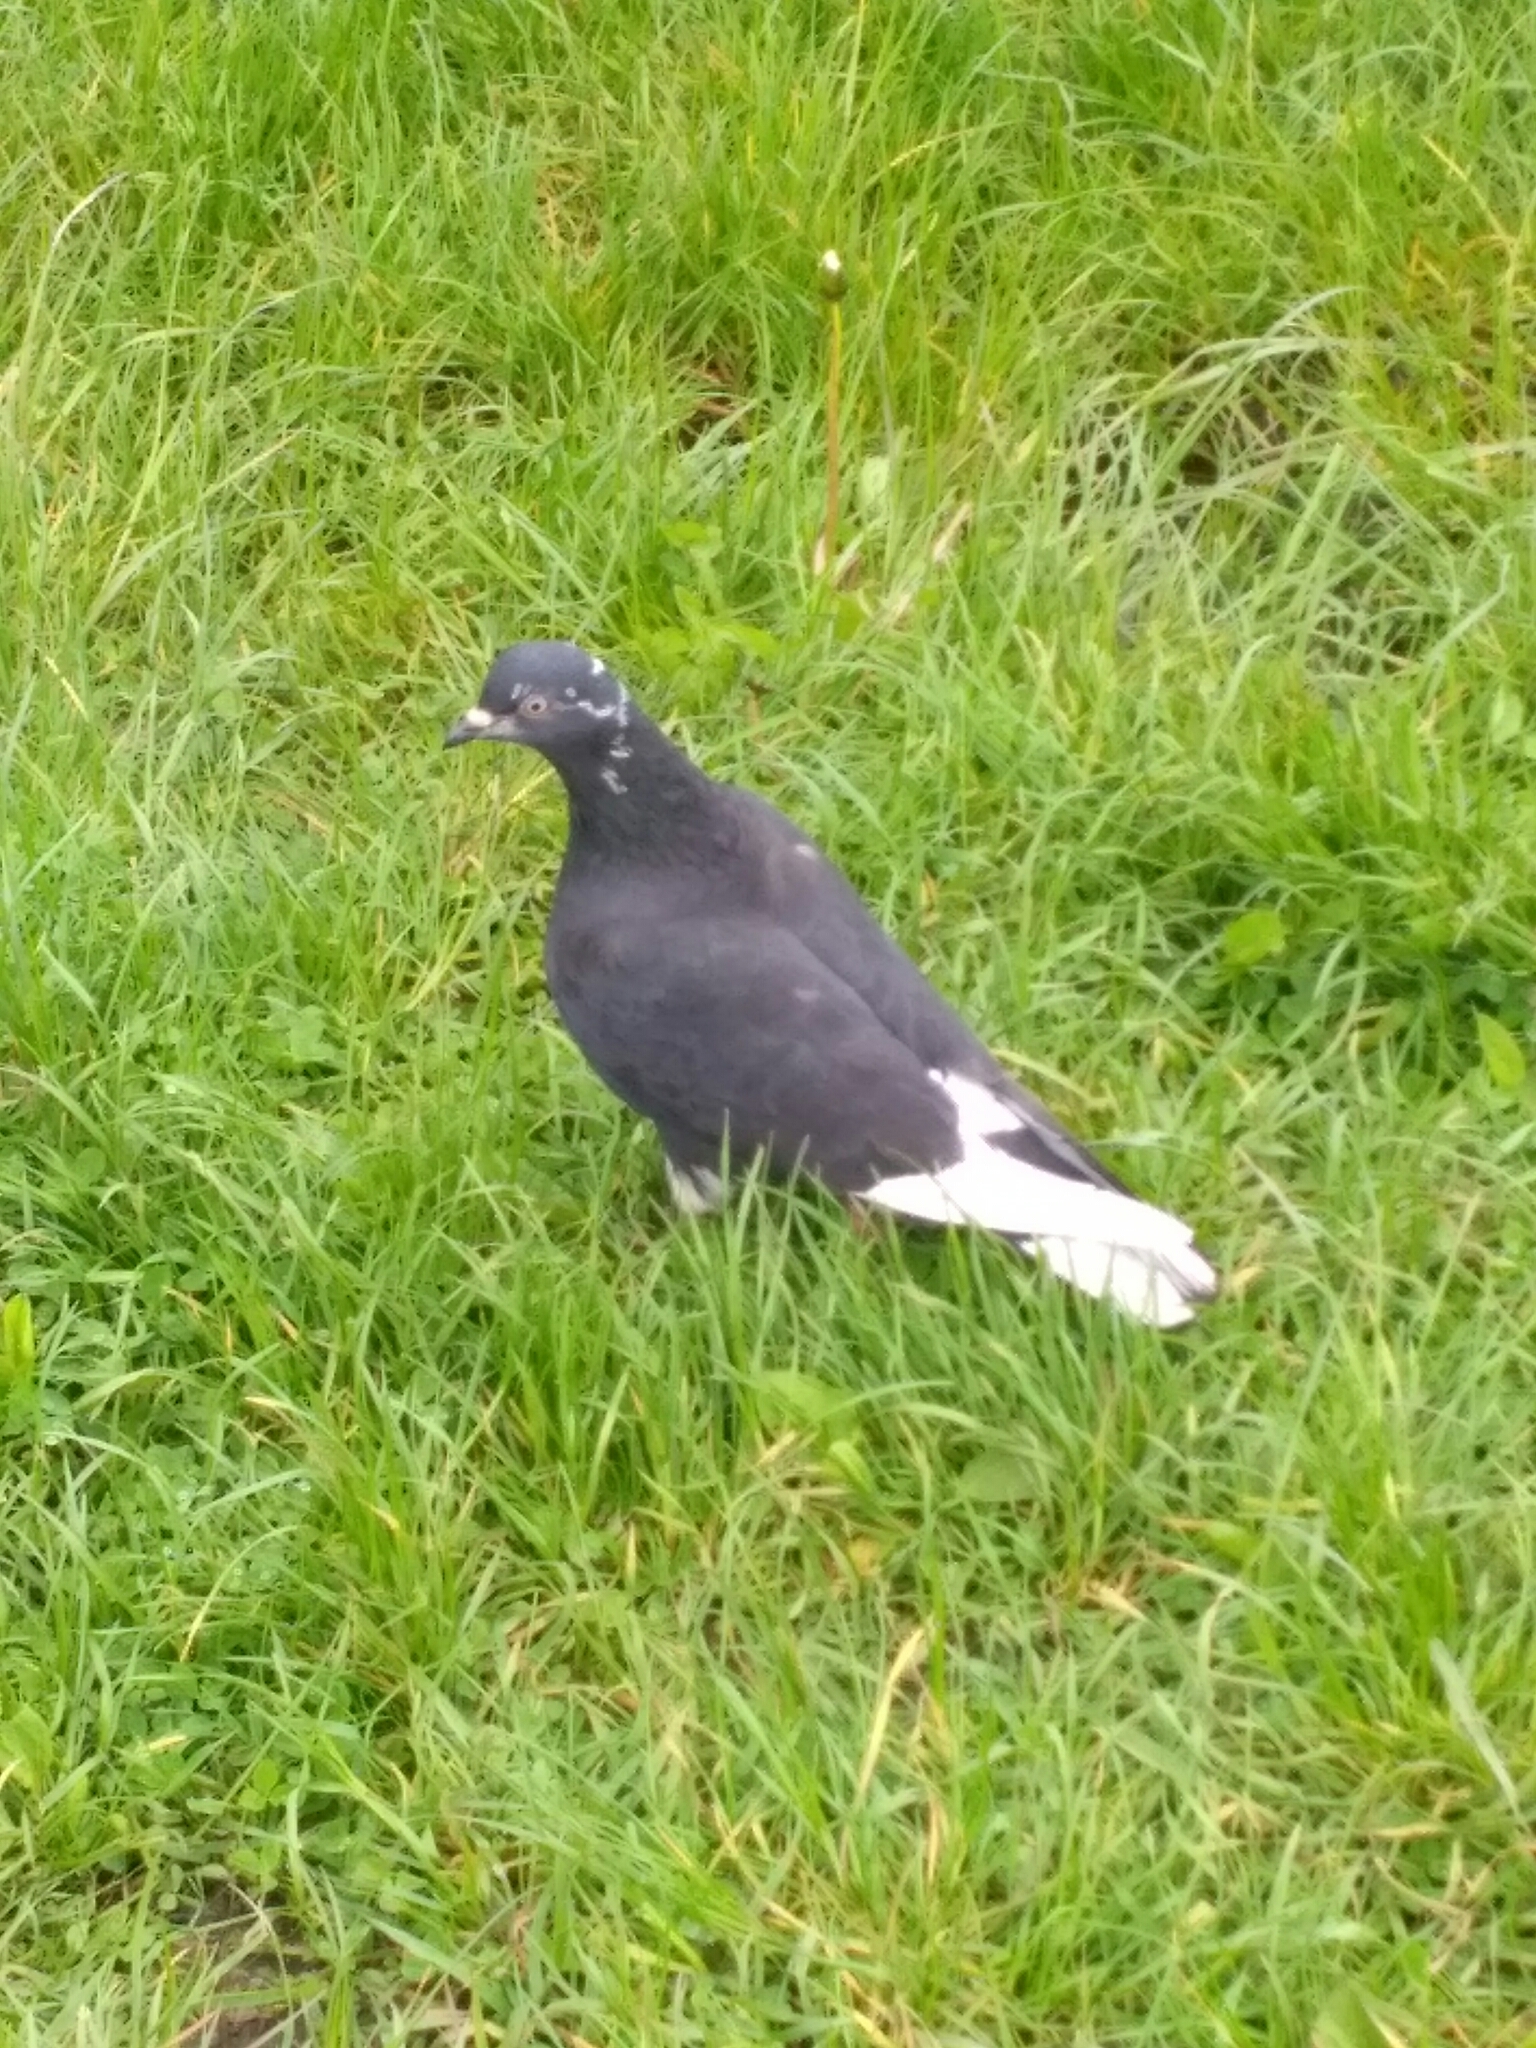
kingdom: Animalia
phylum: Chordata
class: Aves
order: Columbiformes
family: Columbidae
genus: Columba
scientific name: Columba livia
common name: Rock pigeon
